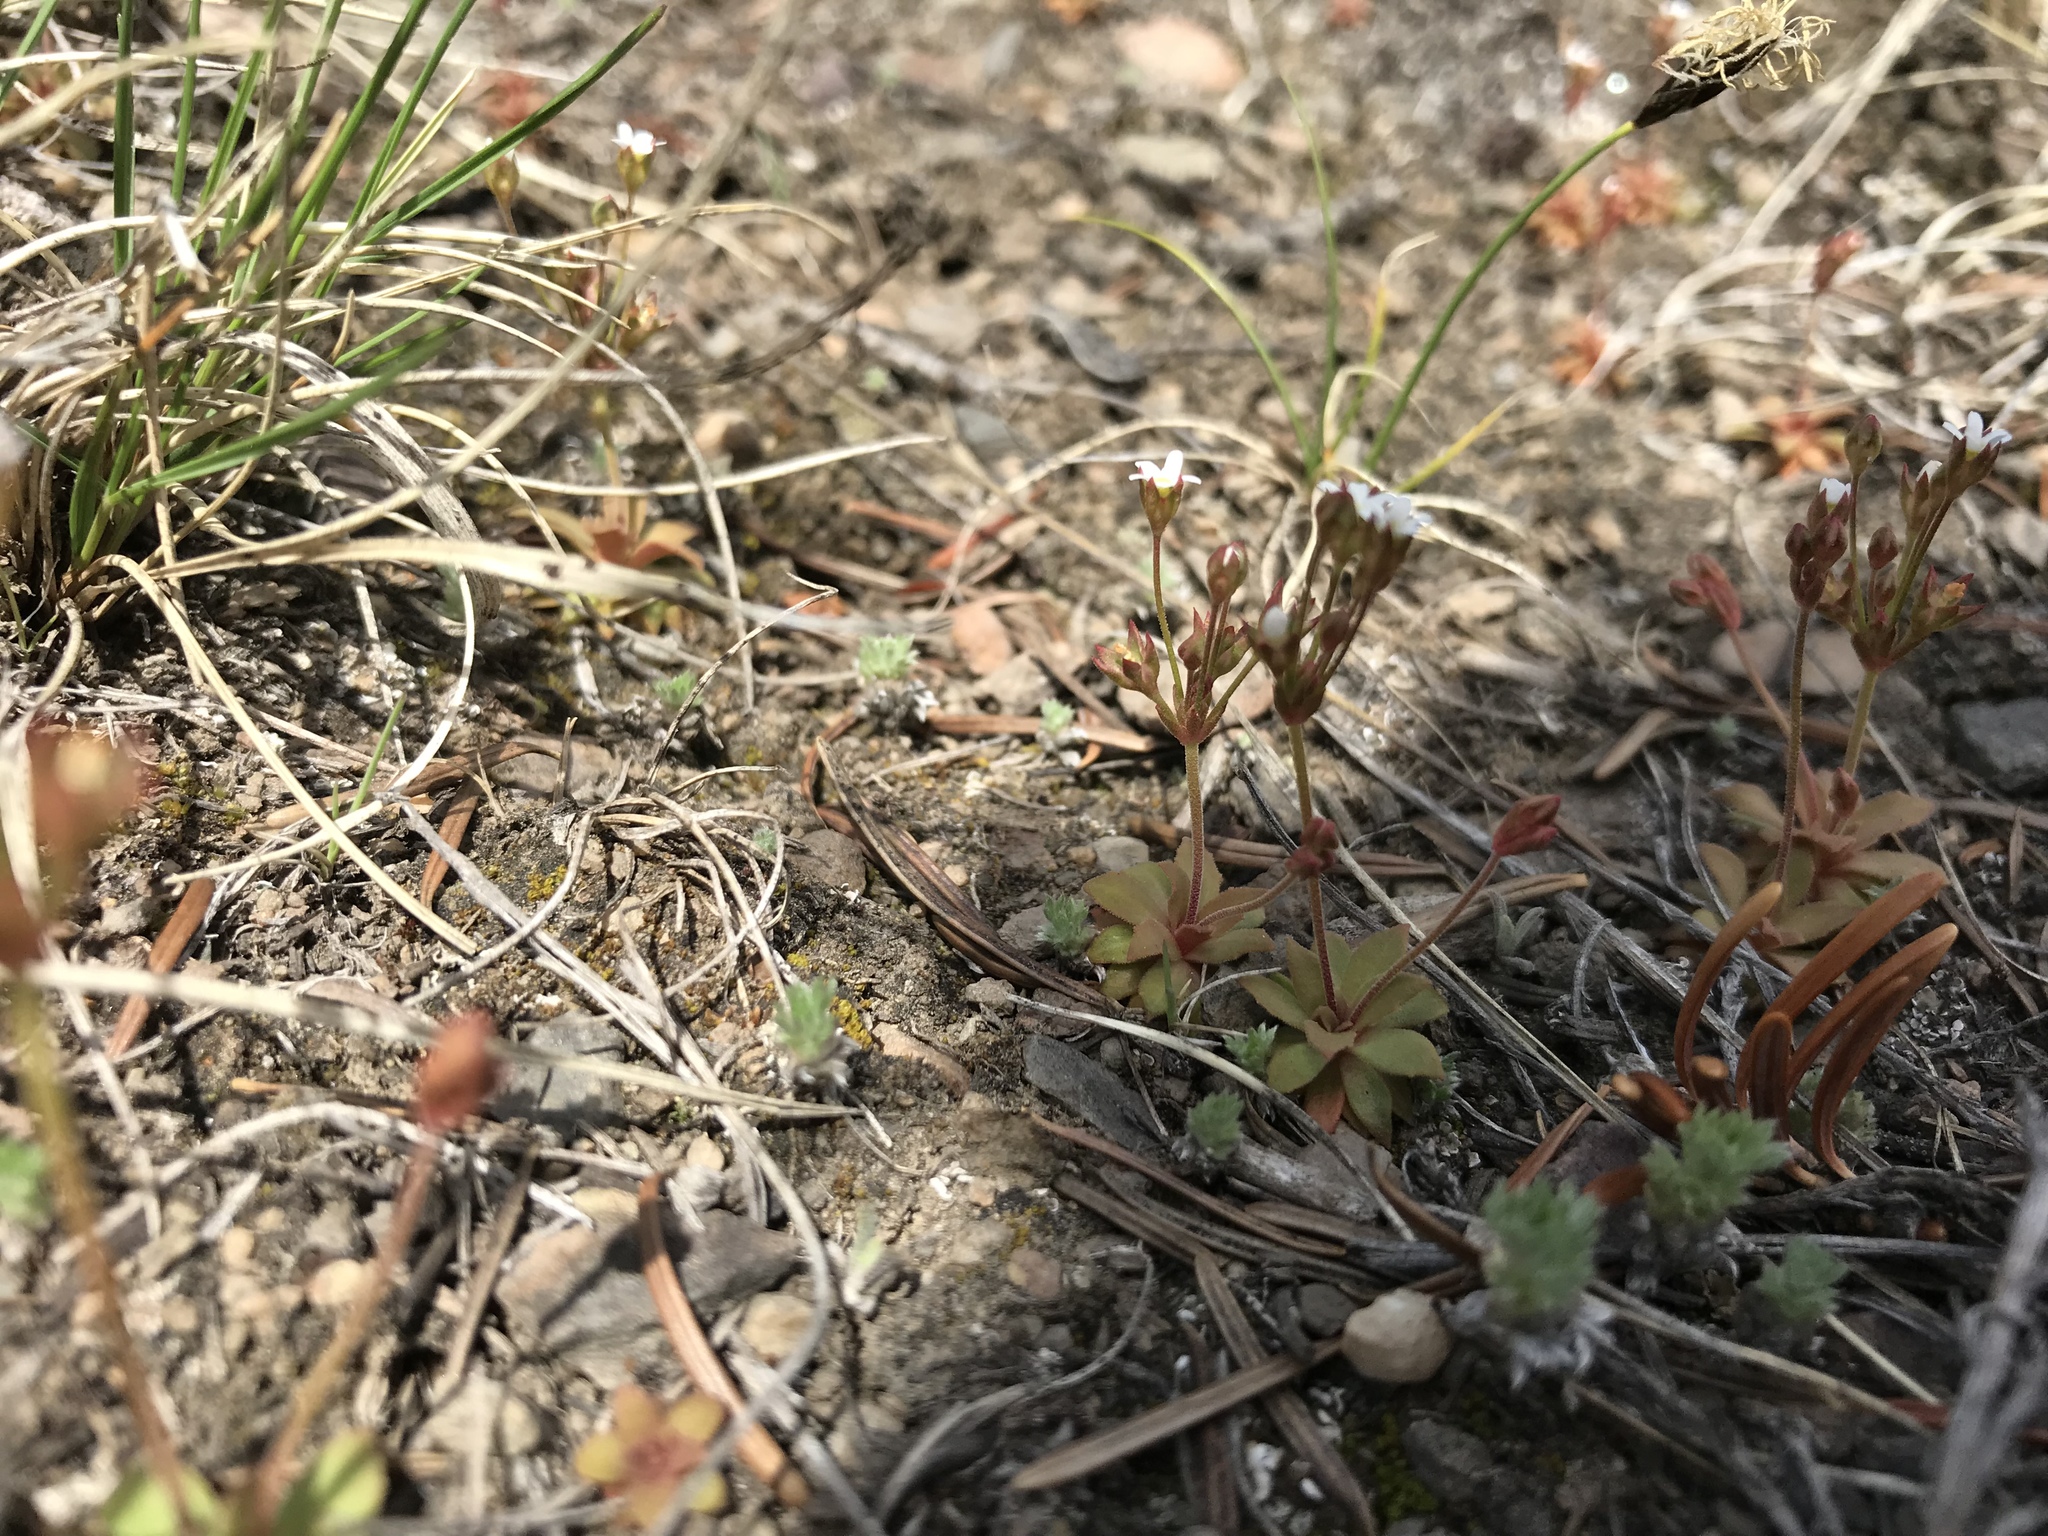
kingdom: Plantae
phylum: Tracheophyta
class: Magnoliopsida
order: Ericales
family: Primulaceae
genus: Androsace
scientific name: Androsace septentrionalis
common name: Hairy northern fairy-candelabra
